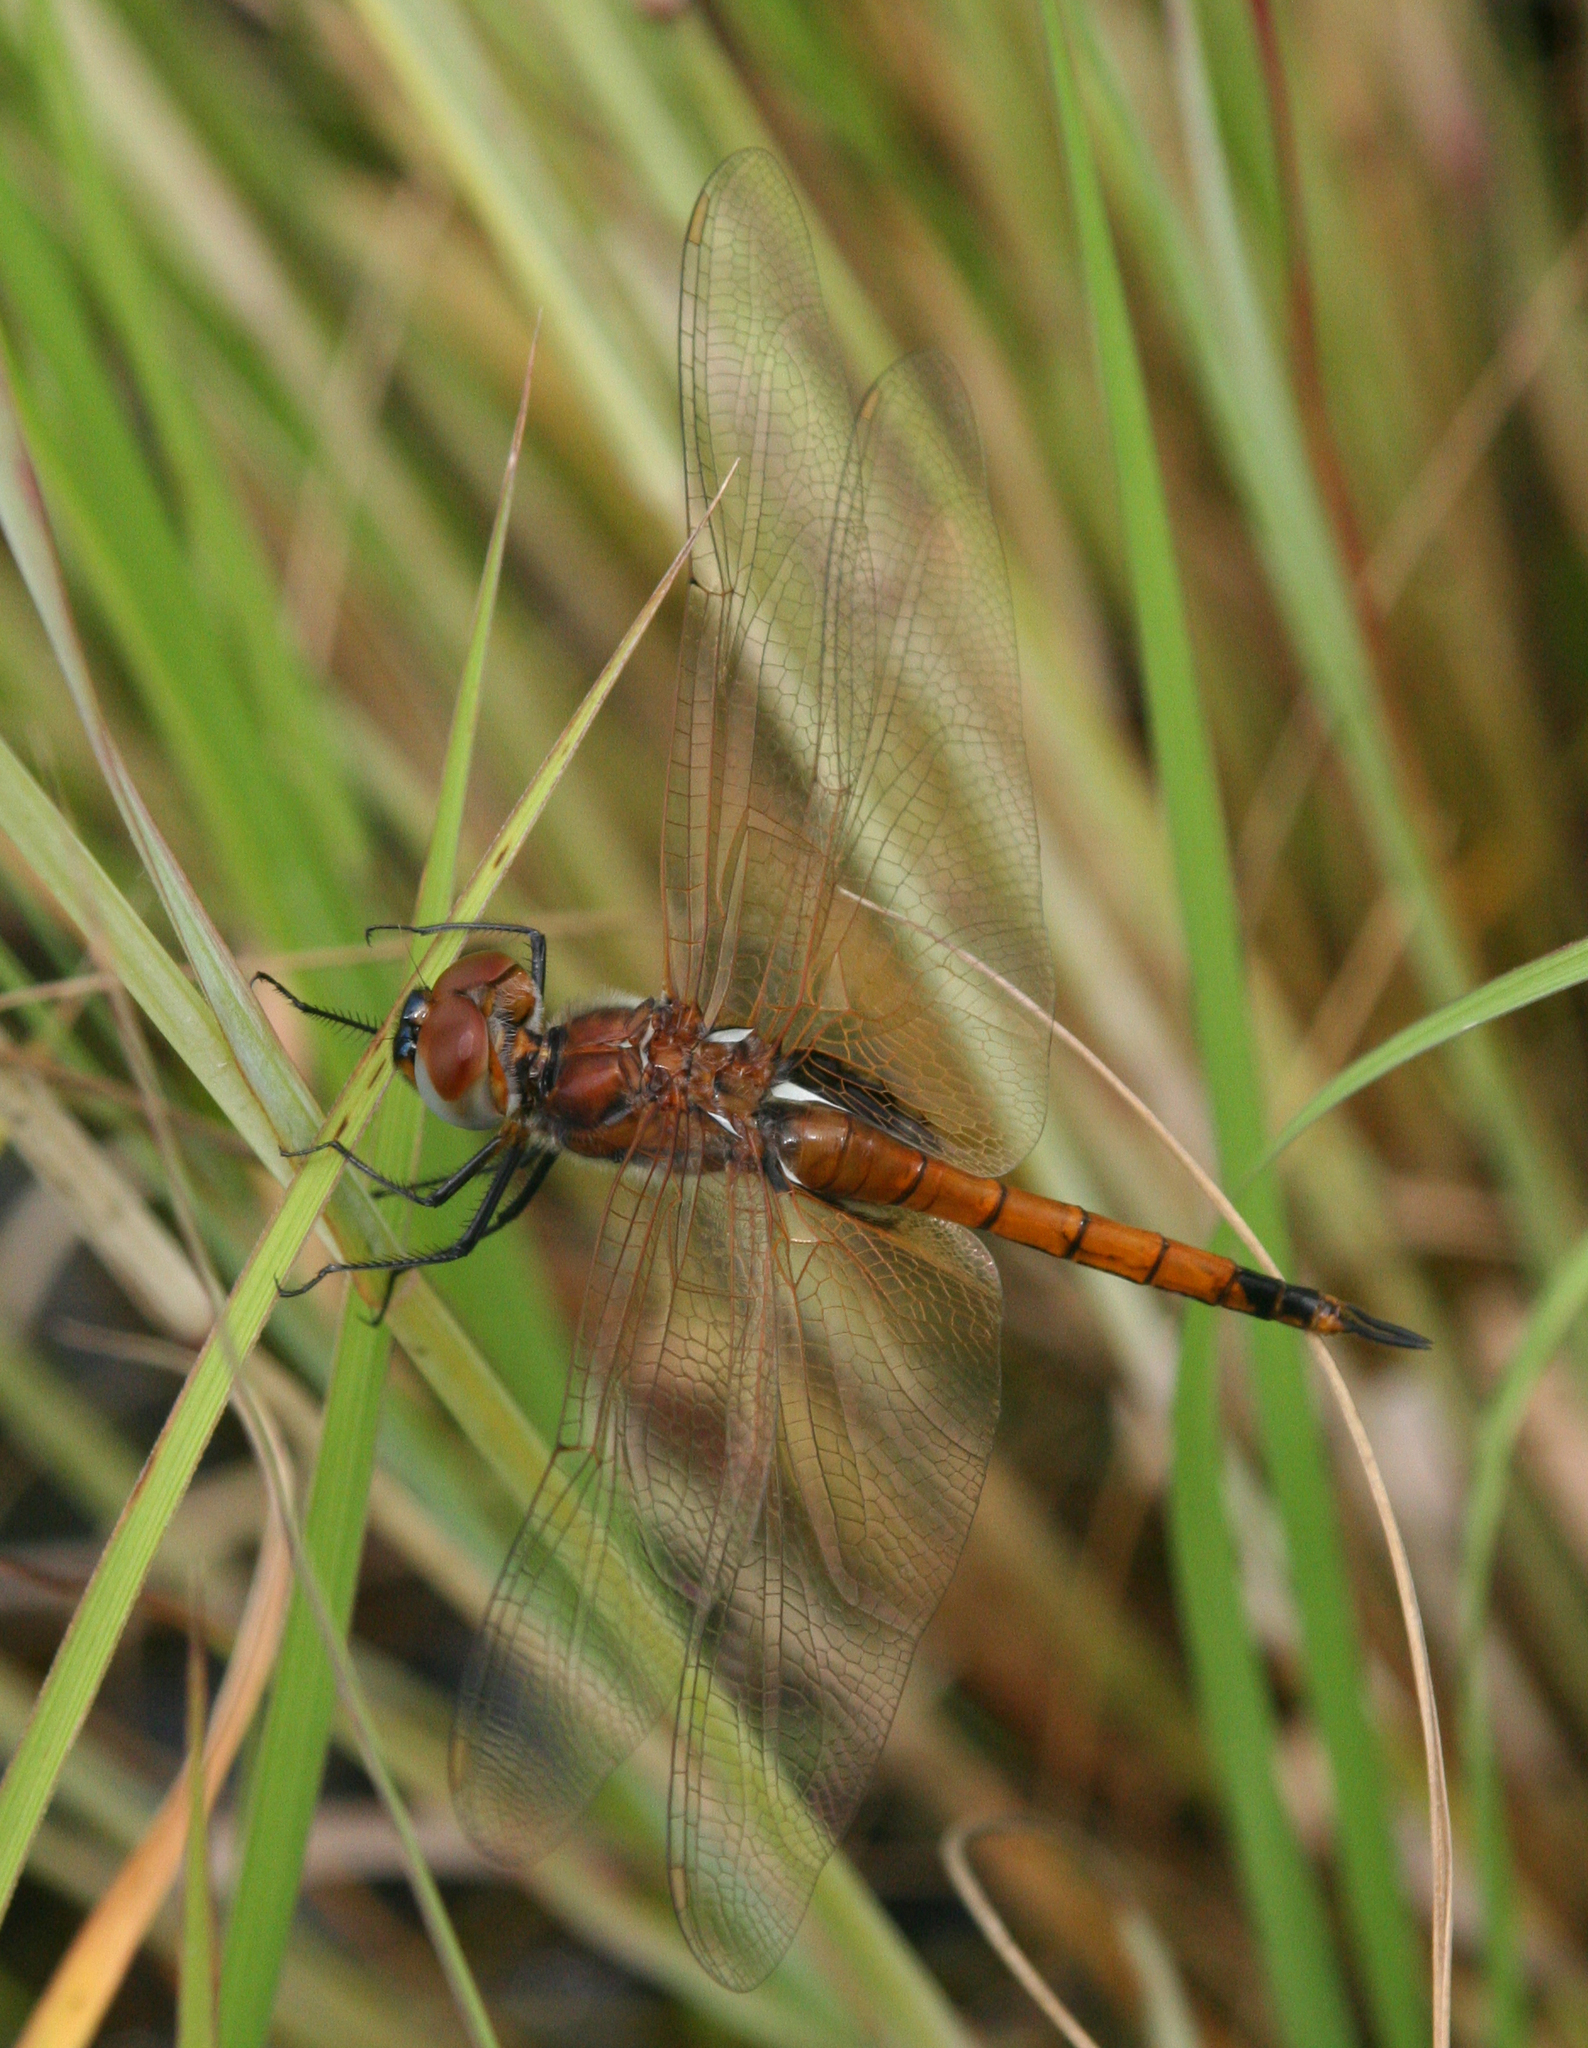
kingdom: Animalia
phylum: Arthropoda
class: Insecta
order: Odonata
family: Libellulidae
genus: Tramea
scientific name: Tramea transmarina
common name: Red glider dragonfly
